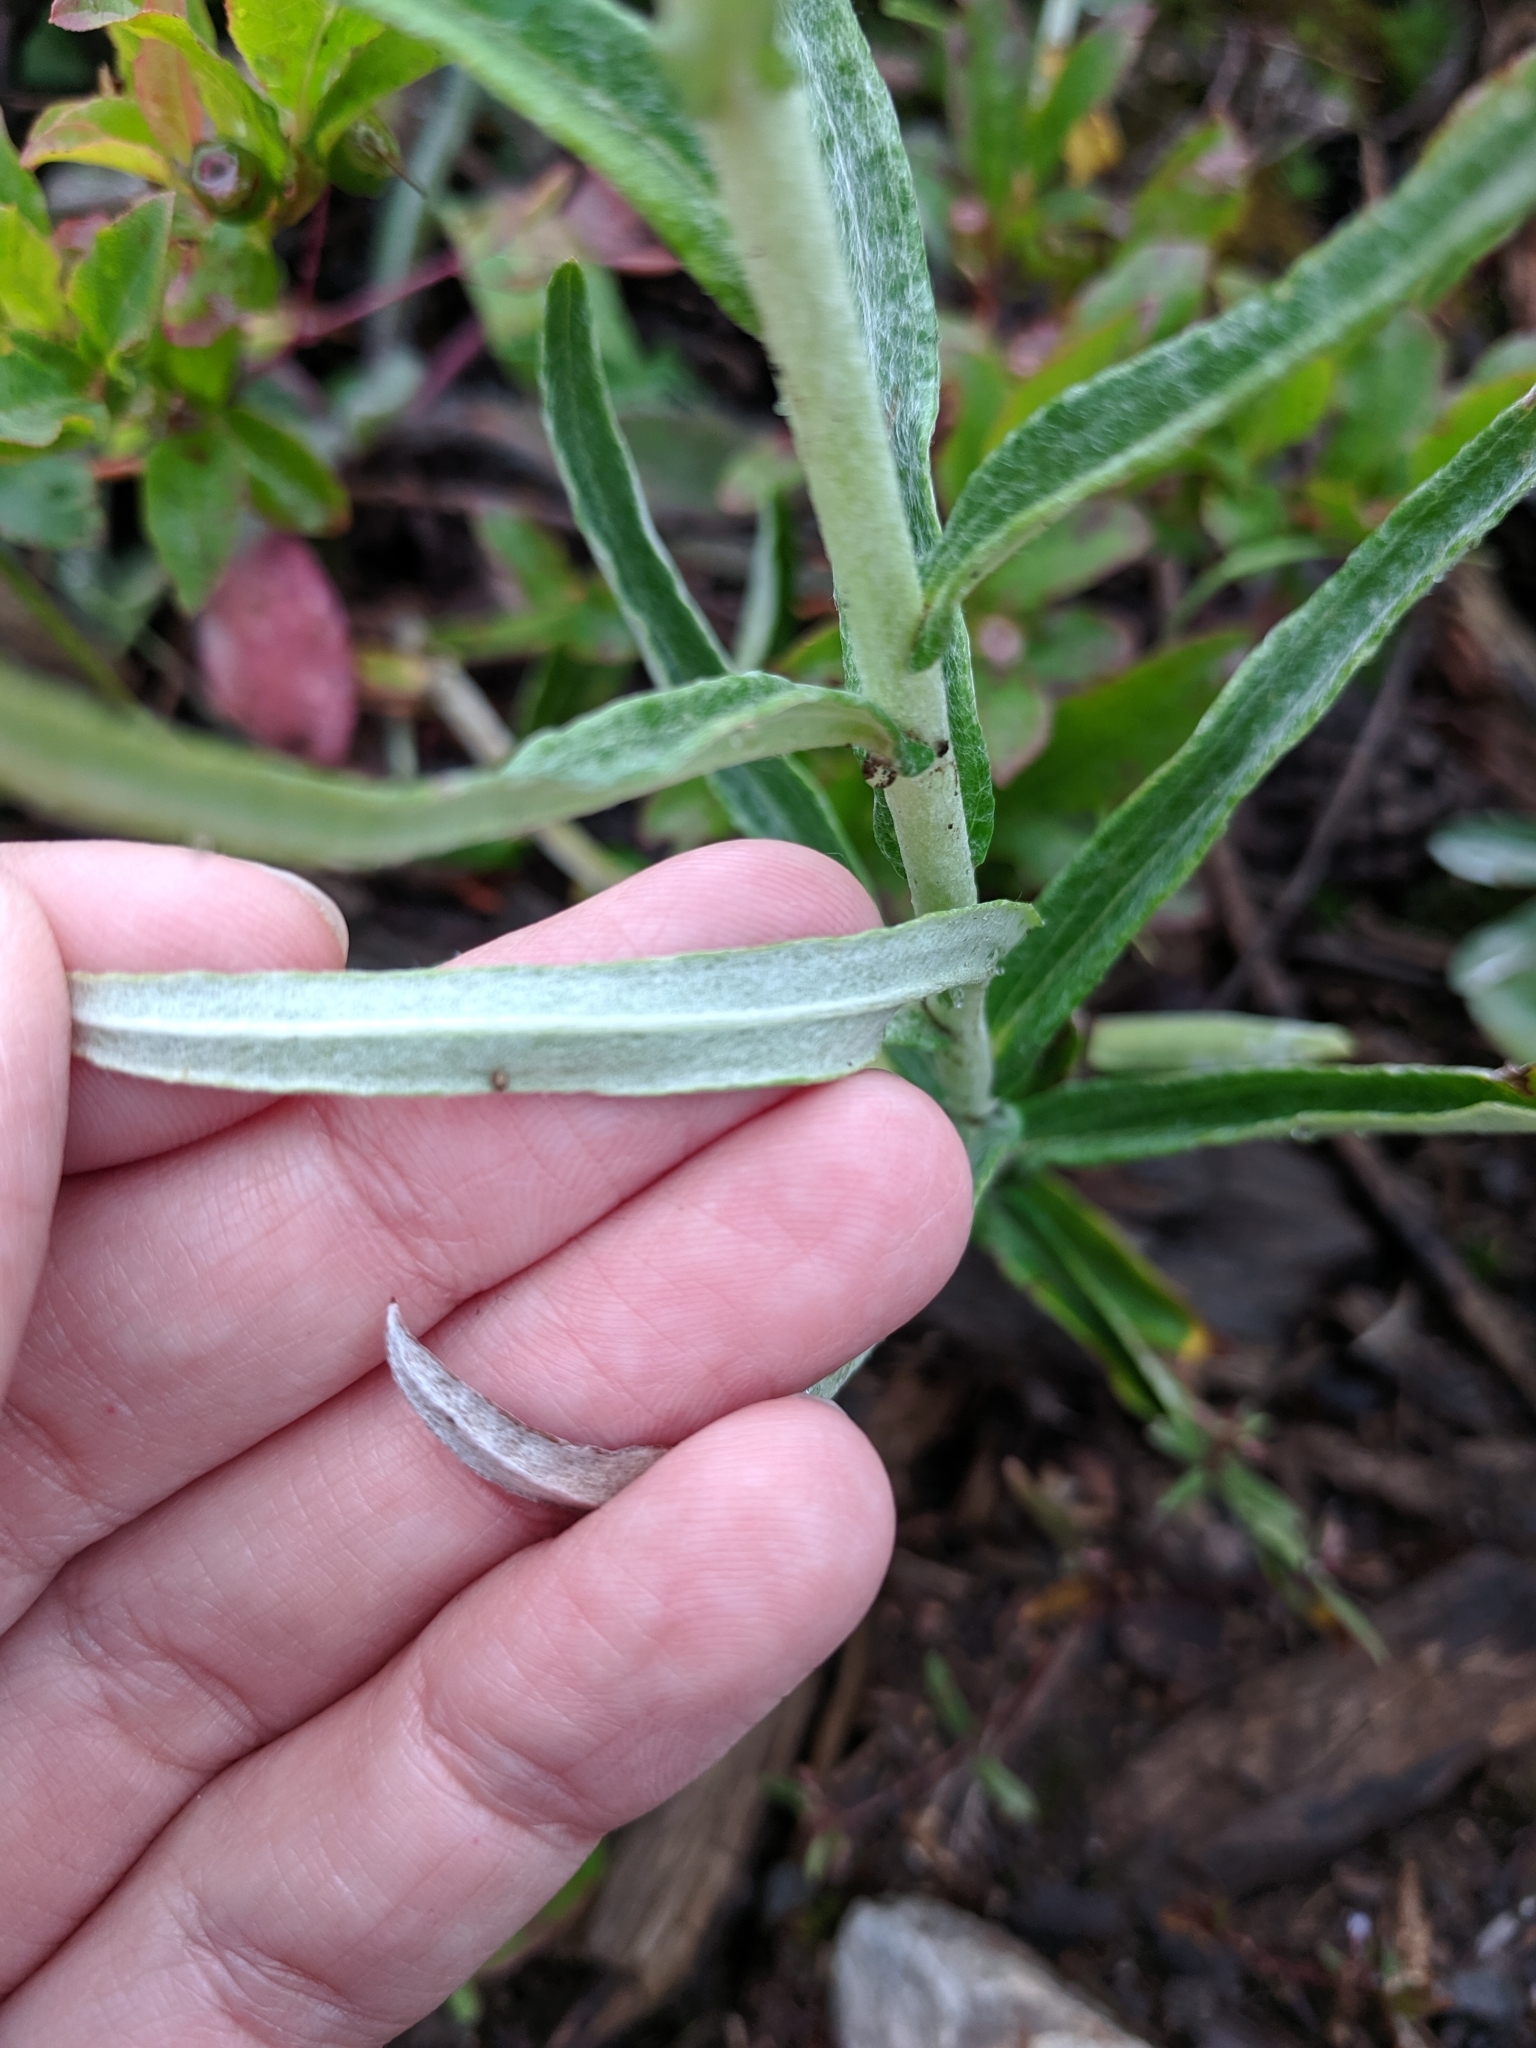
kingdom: Plantae
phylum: Tracheophyta
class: Magnoliopsida
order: Asterales
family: Asteraceae
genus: Anaphalis
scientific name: Anaphalis margaritacea
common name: Pearly everlasting
